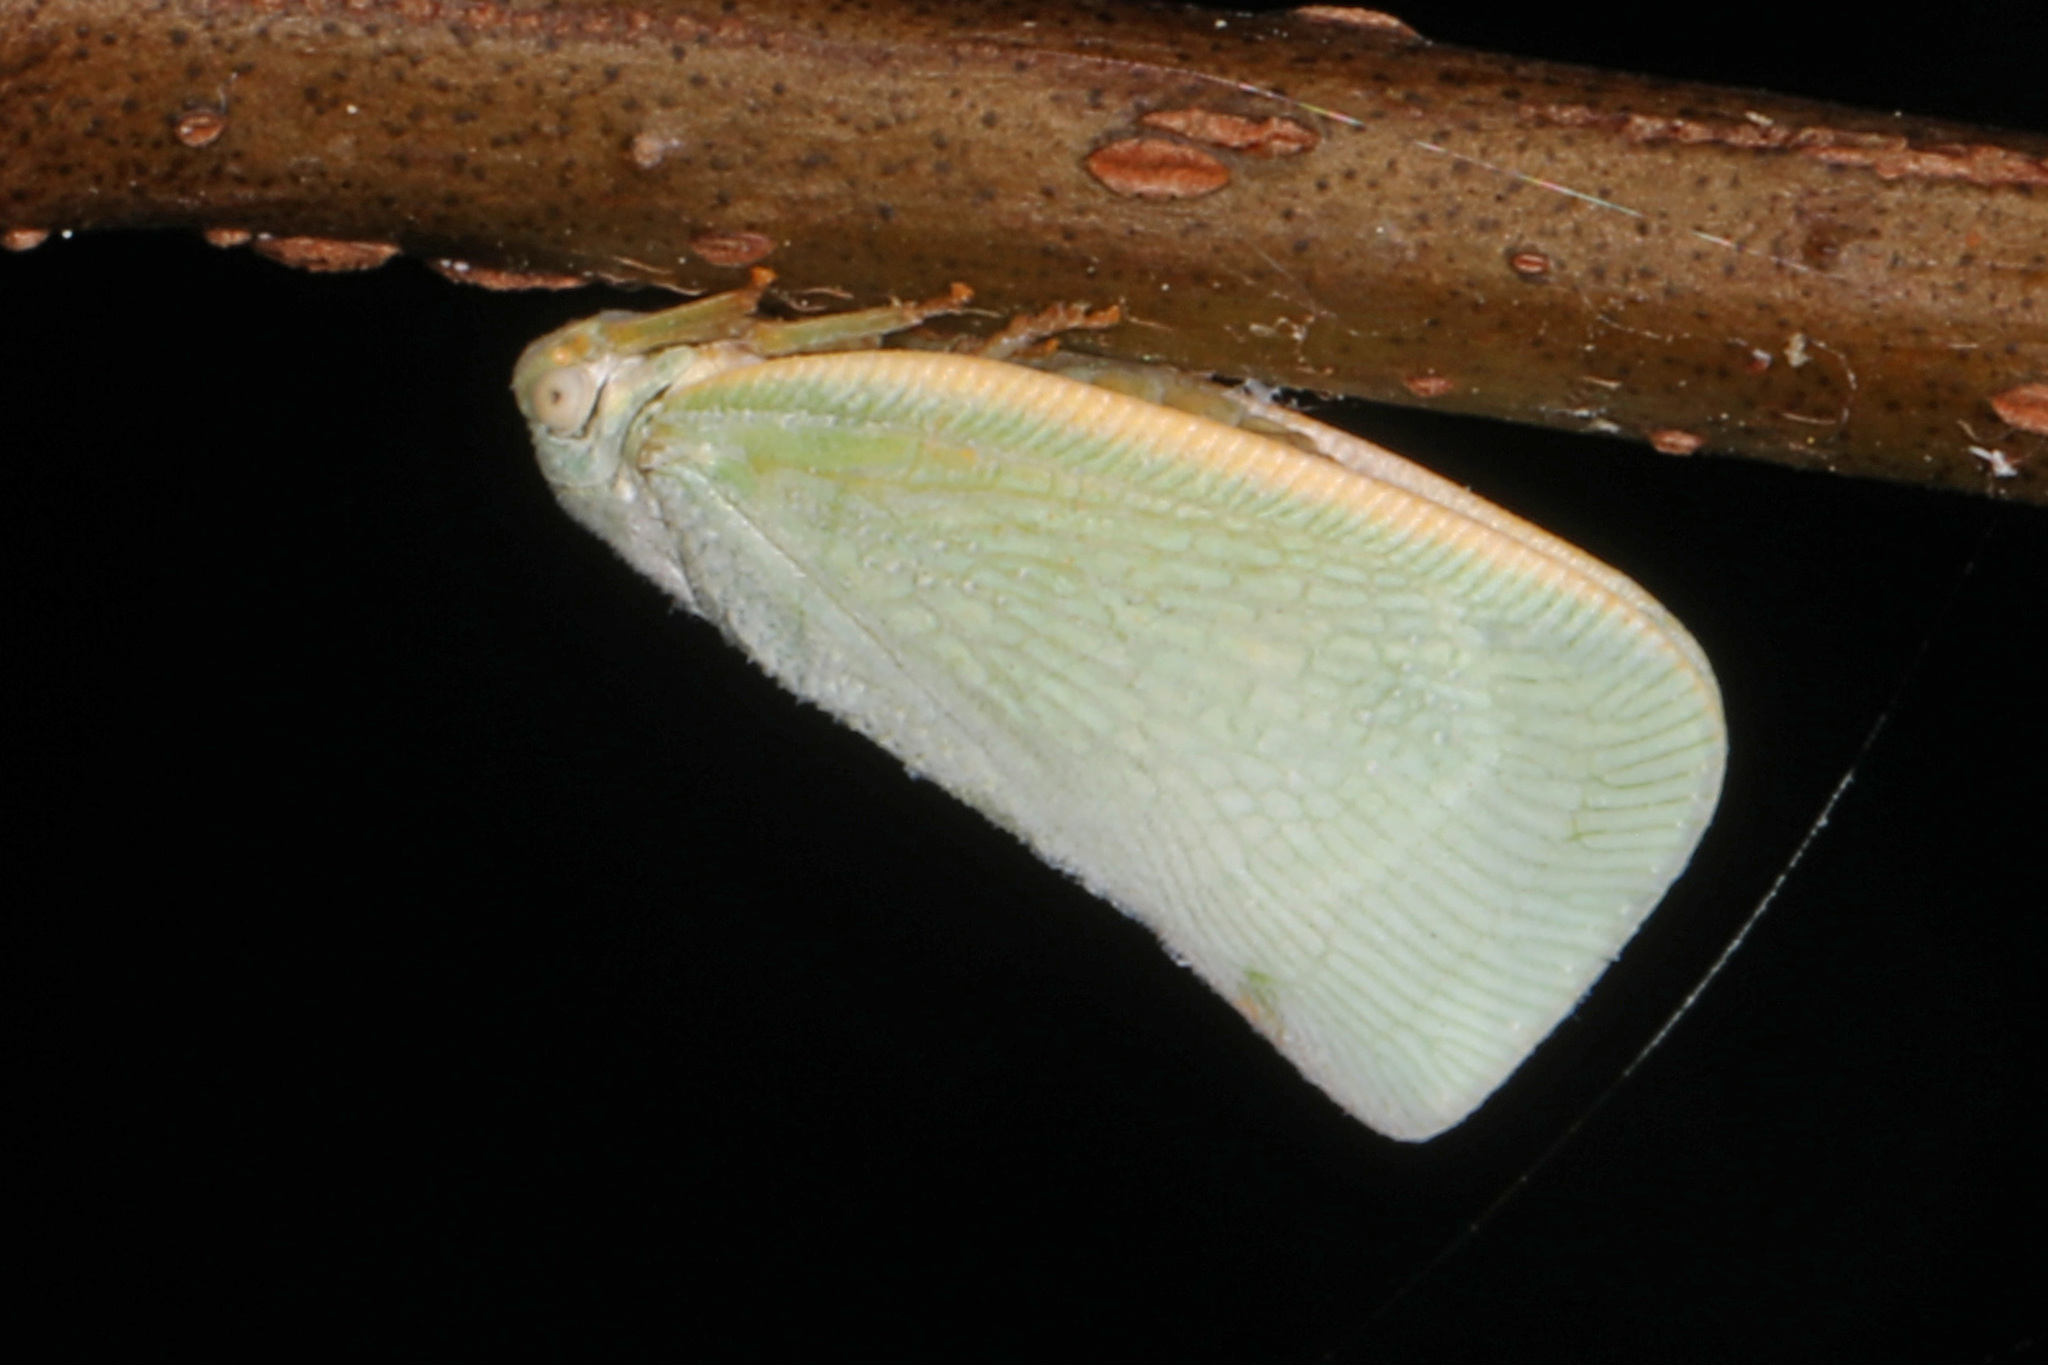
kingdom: Animalia
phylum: Arthropoda
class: Insecta
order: Hemiptera
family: Flatidae
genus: Flatormenis
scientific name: Flatormenis proxima
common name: Northern flatid planthopper
